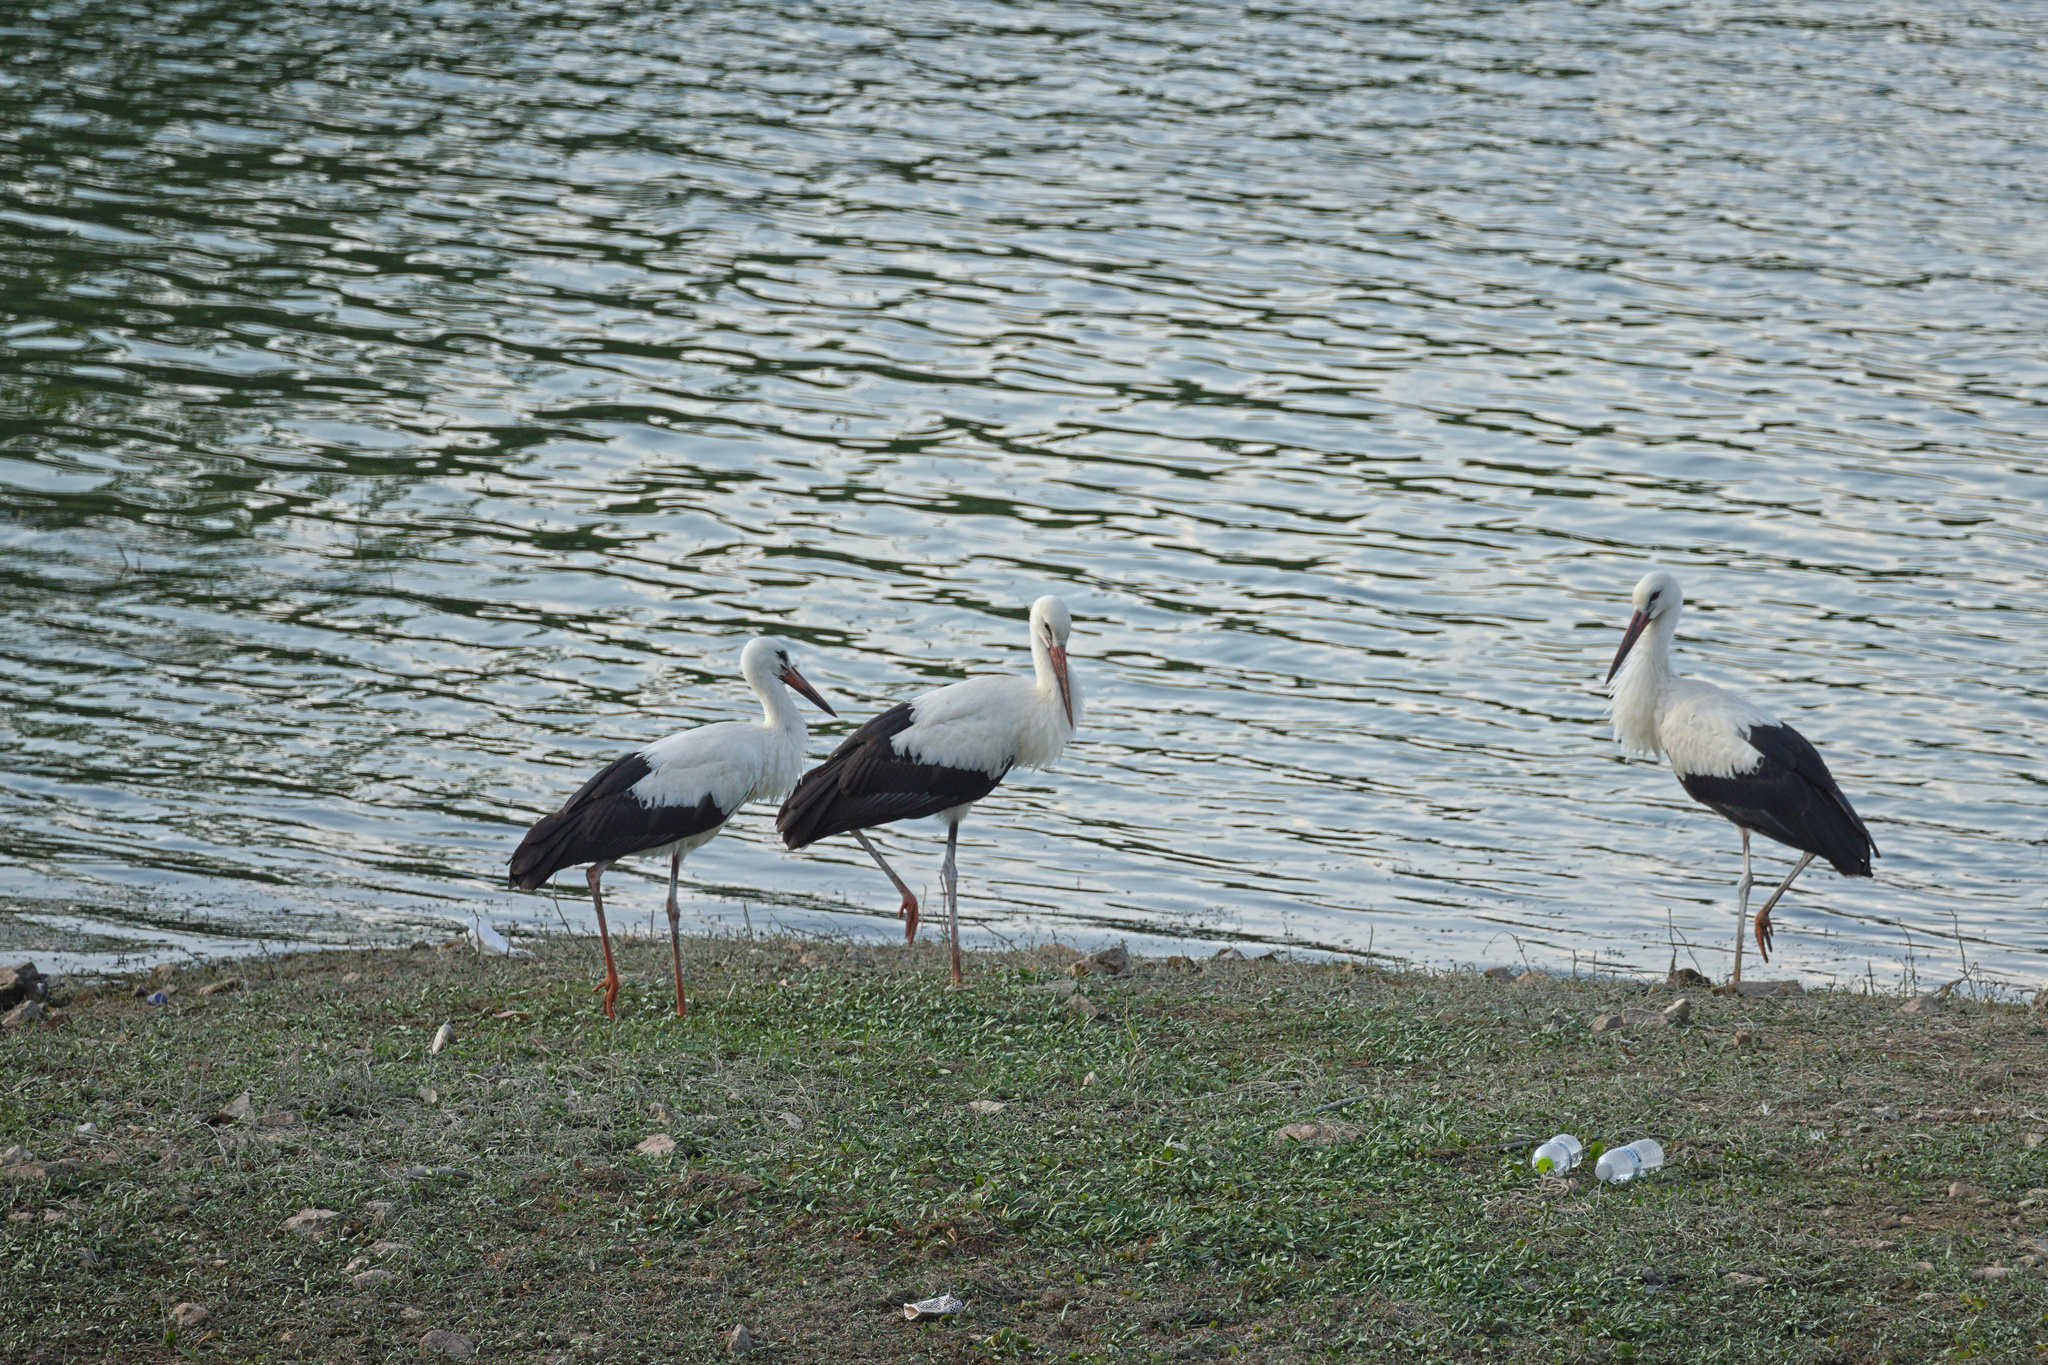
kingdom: Animalia
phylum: Chordata
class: Aves
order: Ciconiiformes
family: Ciconiidae
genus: Ciconia
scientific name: Ciconia ciconia
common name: White stork
